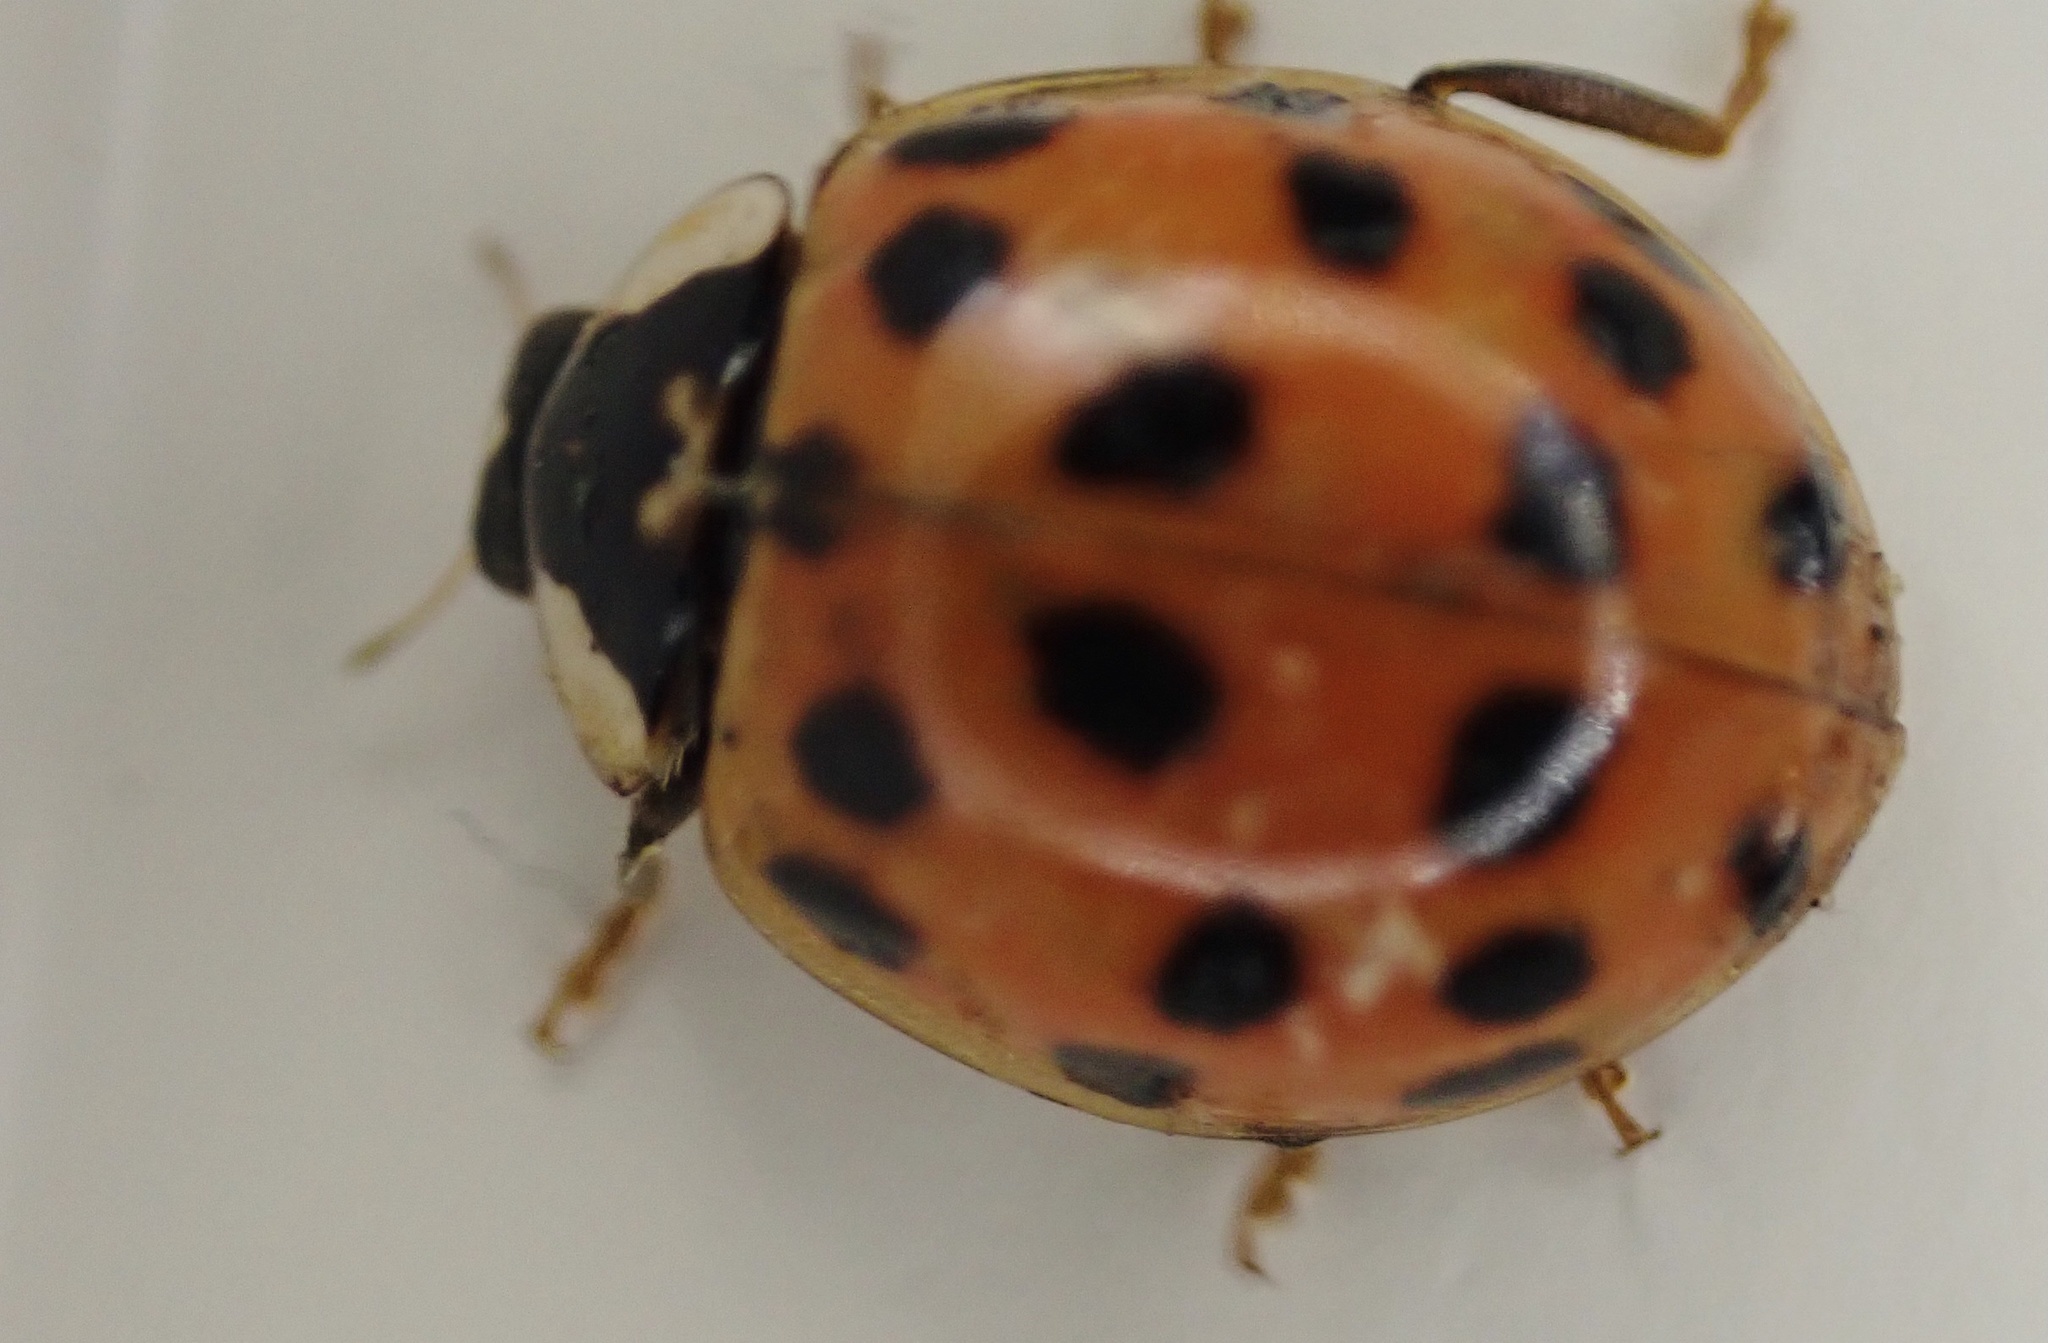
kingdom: Animalia
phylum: Arthropoda
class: Insecta
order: Coleoptera
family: Coccinellidae
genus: Harmonia
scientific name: Harmonia axyridis
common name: Harlequin ladybird
